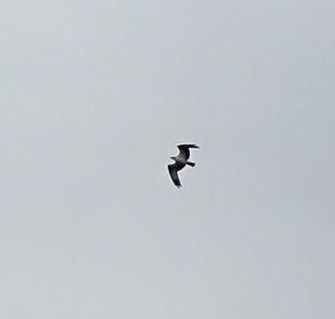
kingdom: Animalia
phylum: Chordata
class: Aves
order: Accipitriformes
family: Pandionidae
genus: Pandion
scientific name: Pandion haliaetus
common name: Osprey
